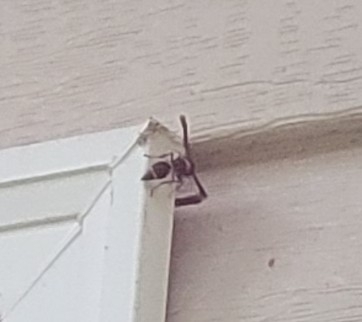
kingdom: Animalia
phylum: Arthropoda
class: Insecta
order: Hymenoptera
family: Vespidae
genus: Eumenes
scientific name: Eumenes fraternus
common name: Fraternal potter wasp
